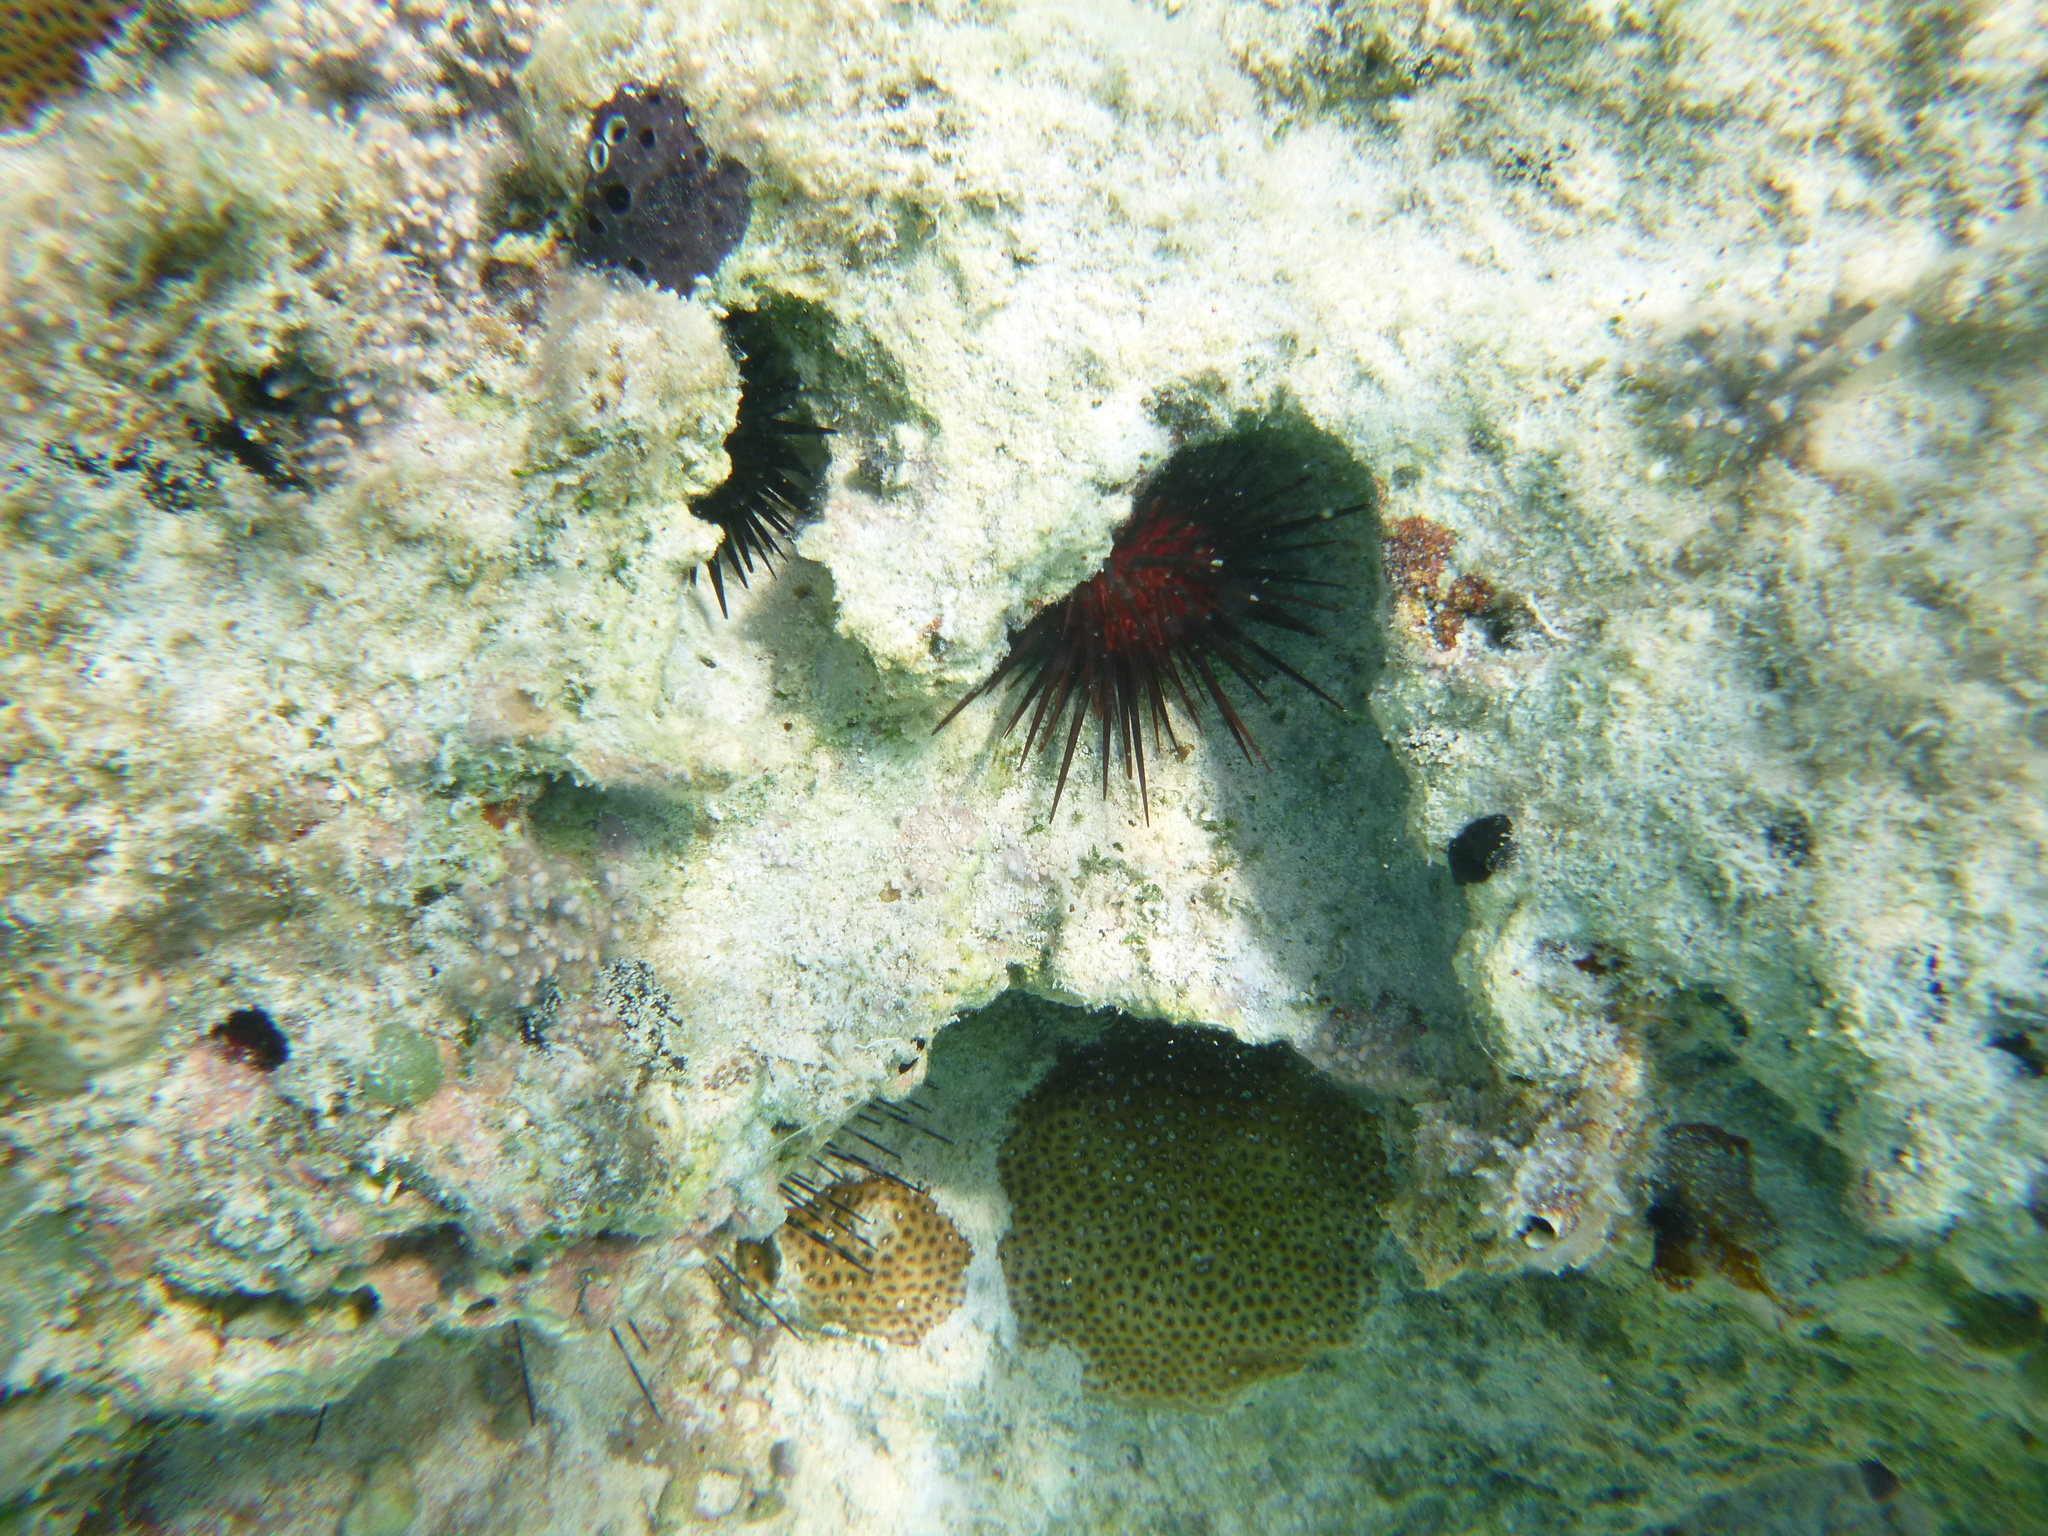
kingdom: Animalia
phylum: Echinodermata
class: Echinoidea
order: Camarodonta
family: Echinometridae
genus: Echinometra
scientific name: Echinometra lucunter
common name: Rock urchin
